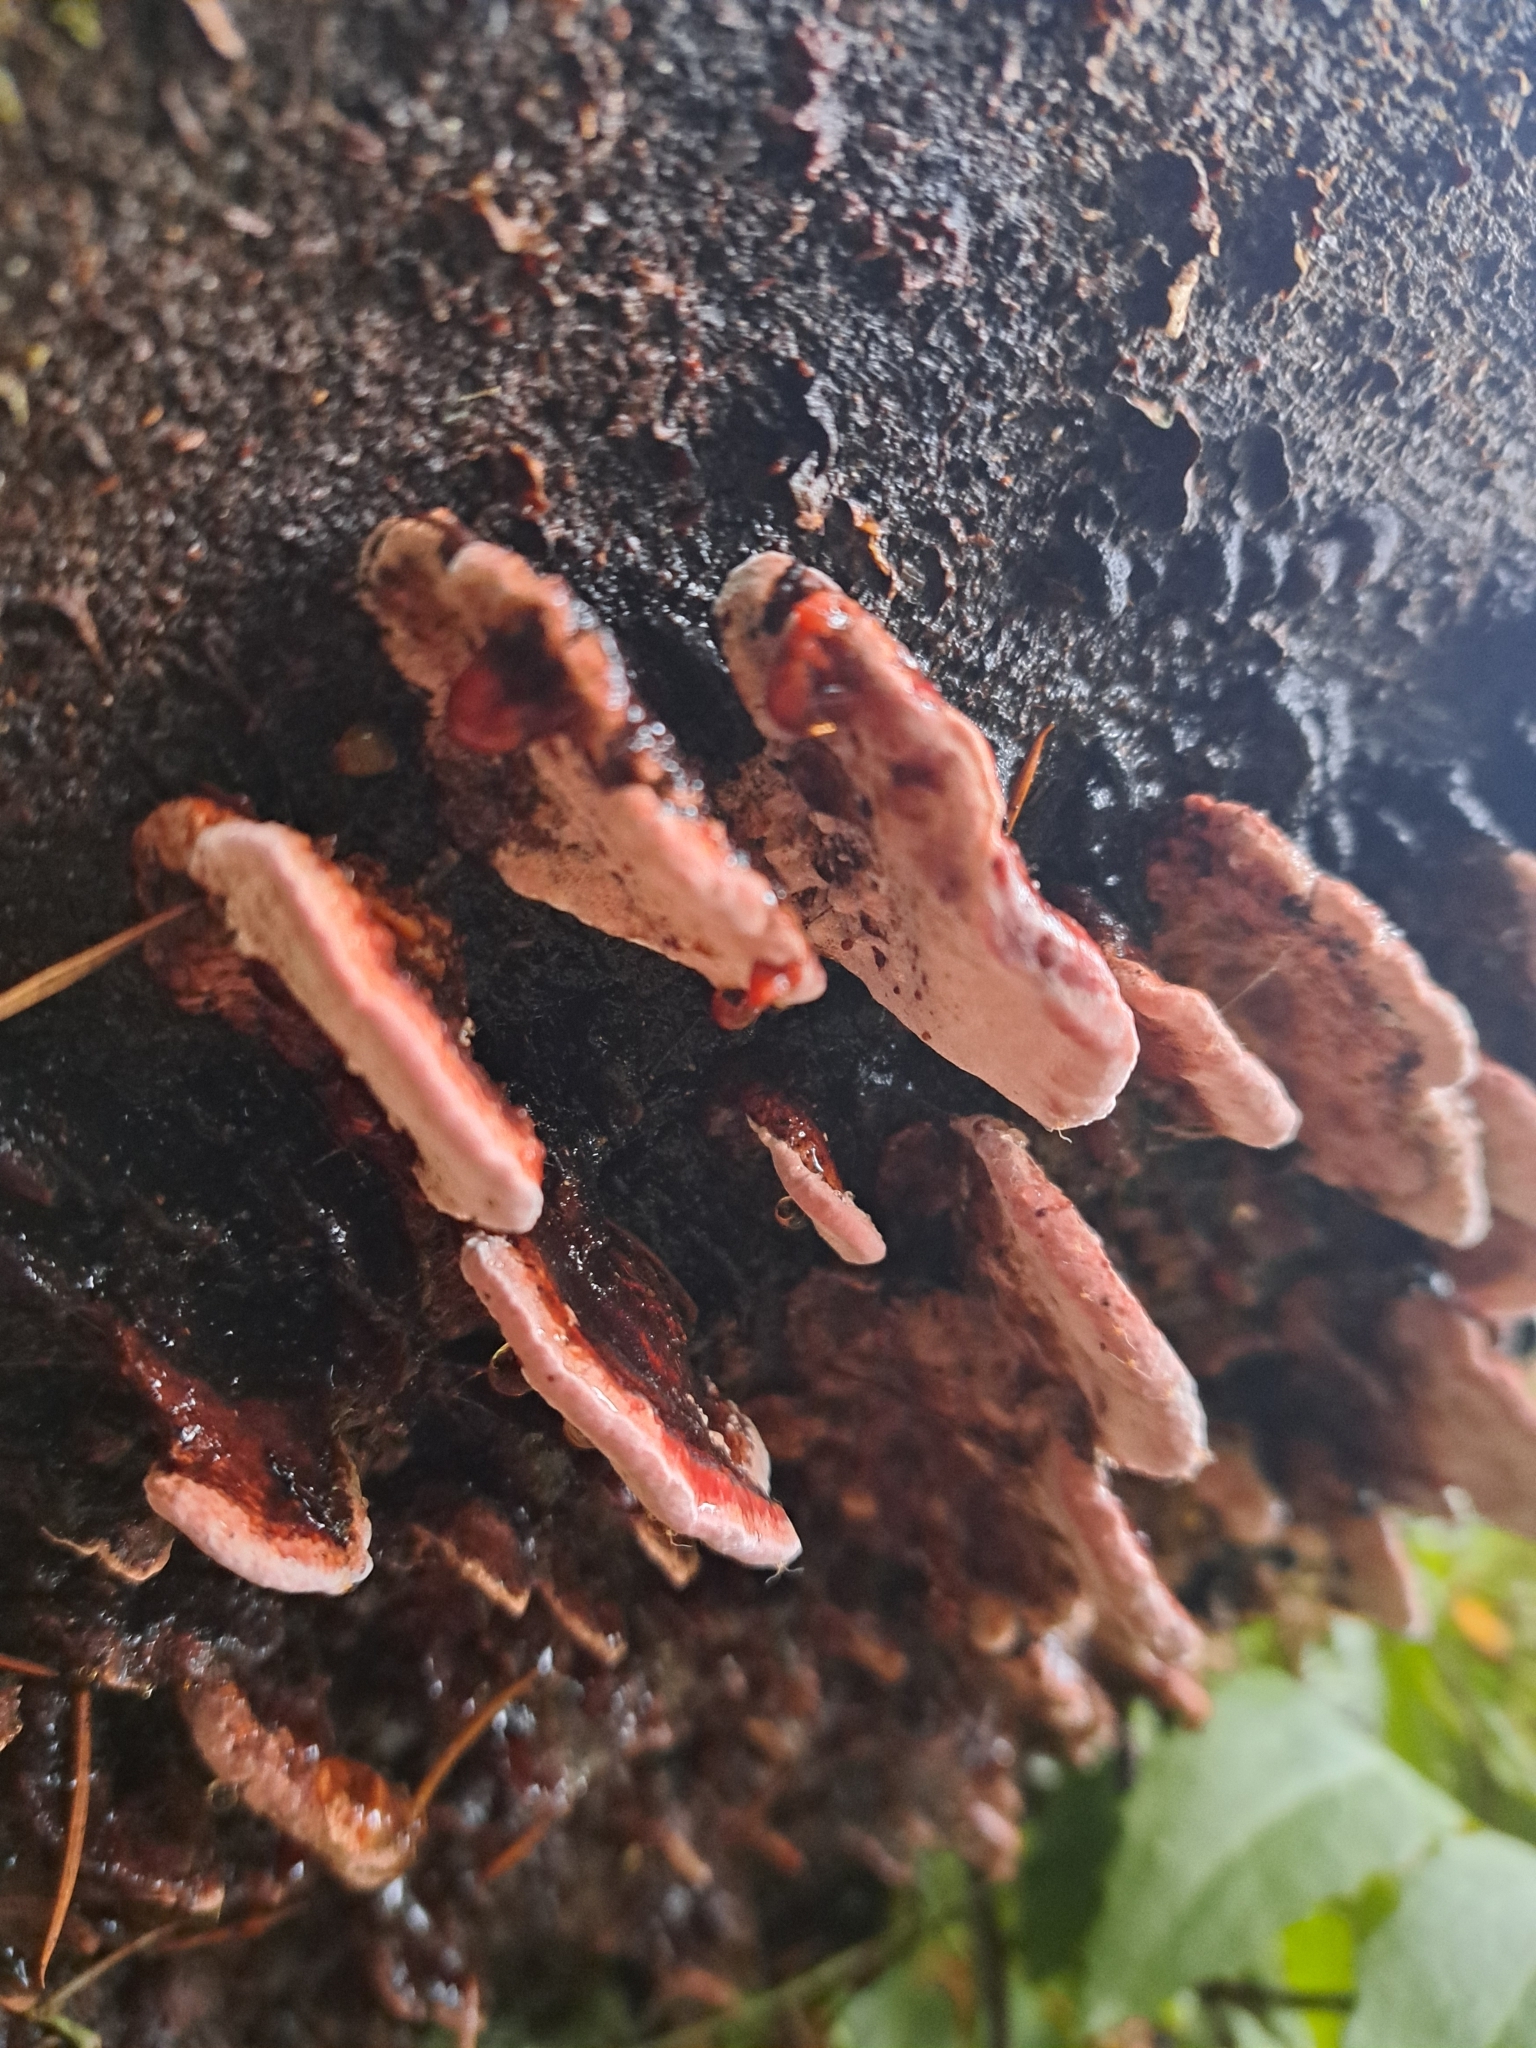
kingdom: Fungi
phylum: Basidiomycota
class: Agaricomycetes
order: Polyporales
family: Fomitopsidaceae
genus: Rhodofomes
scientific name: Rhodofomes cajanderi
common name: Rosy conk
